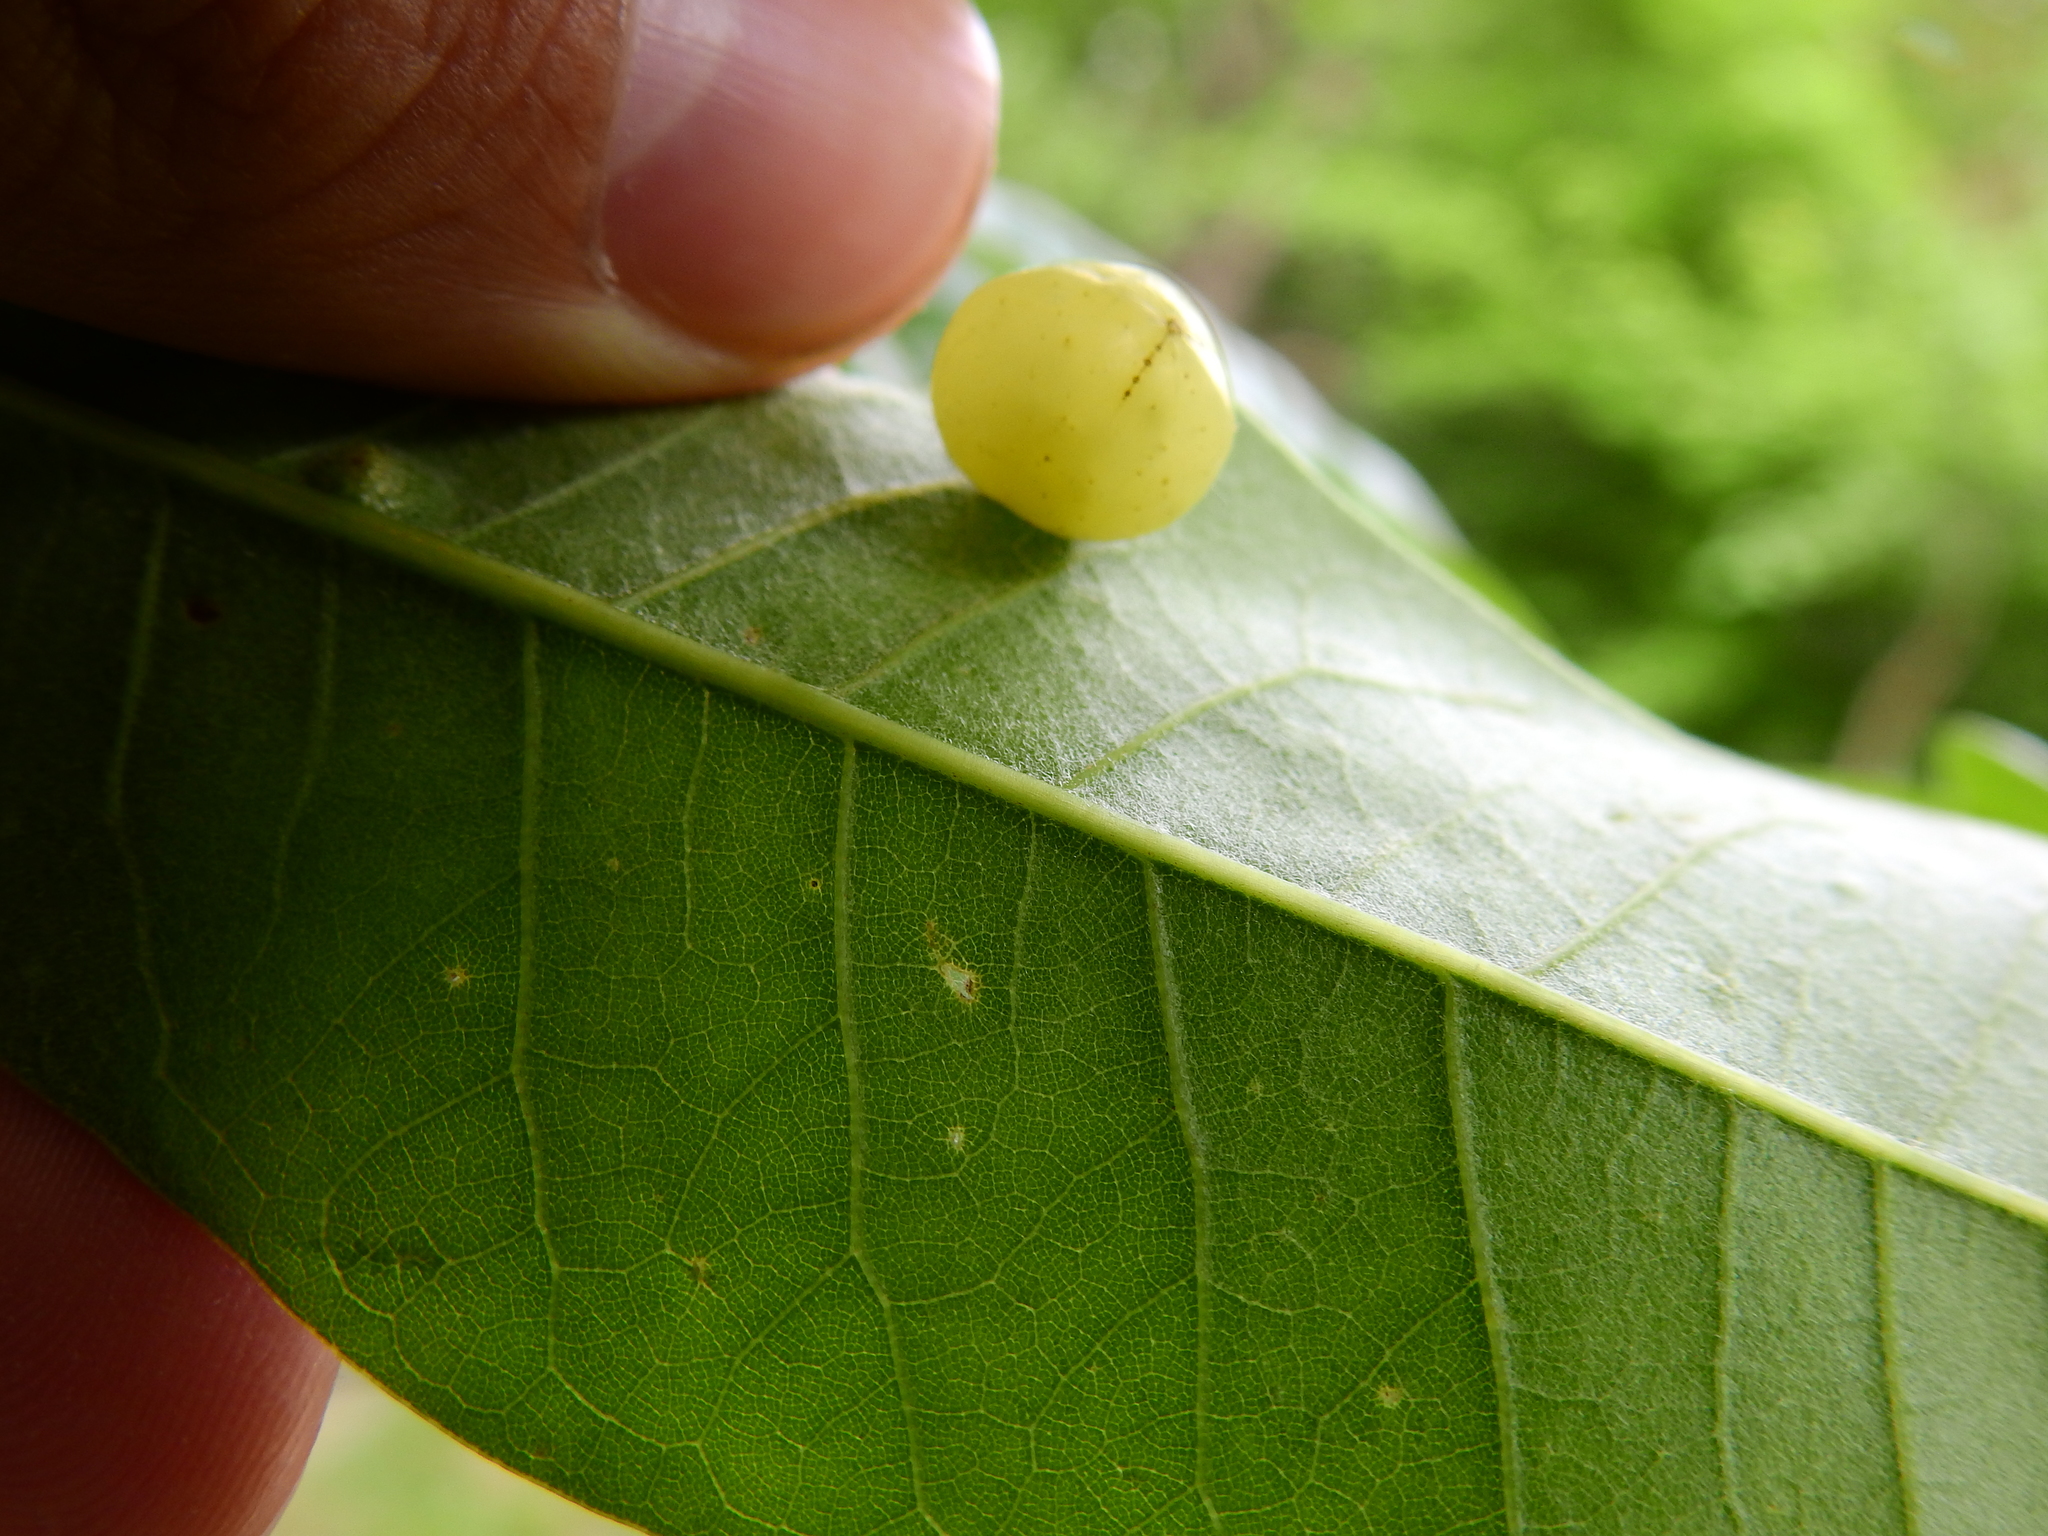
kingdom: Animalia
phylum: Arthropoda
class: Insecta
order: Hymenoptera
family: Cynipidae
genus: Amphibolips
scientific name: Amphibolips
